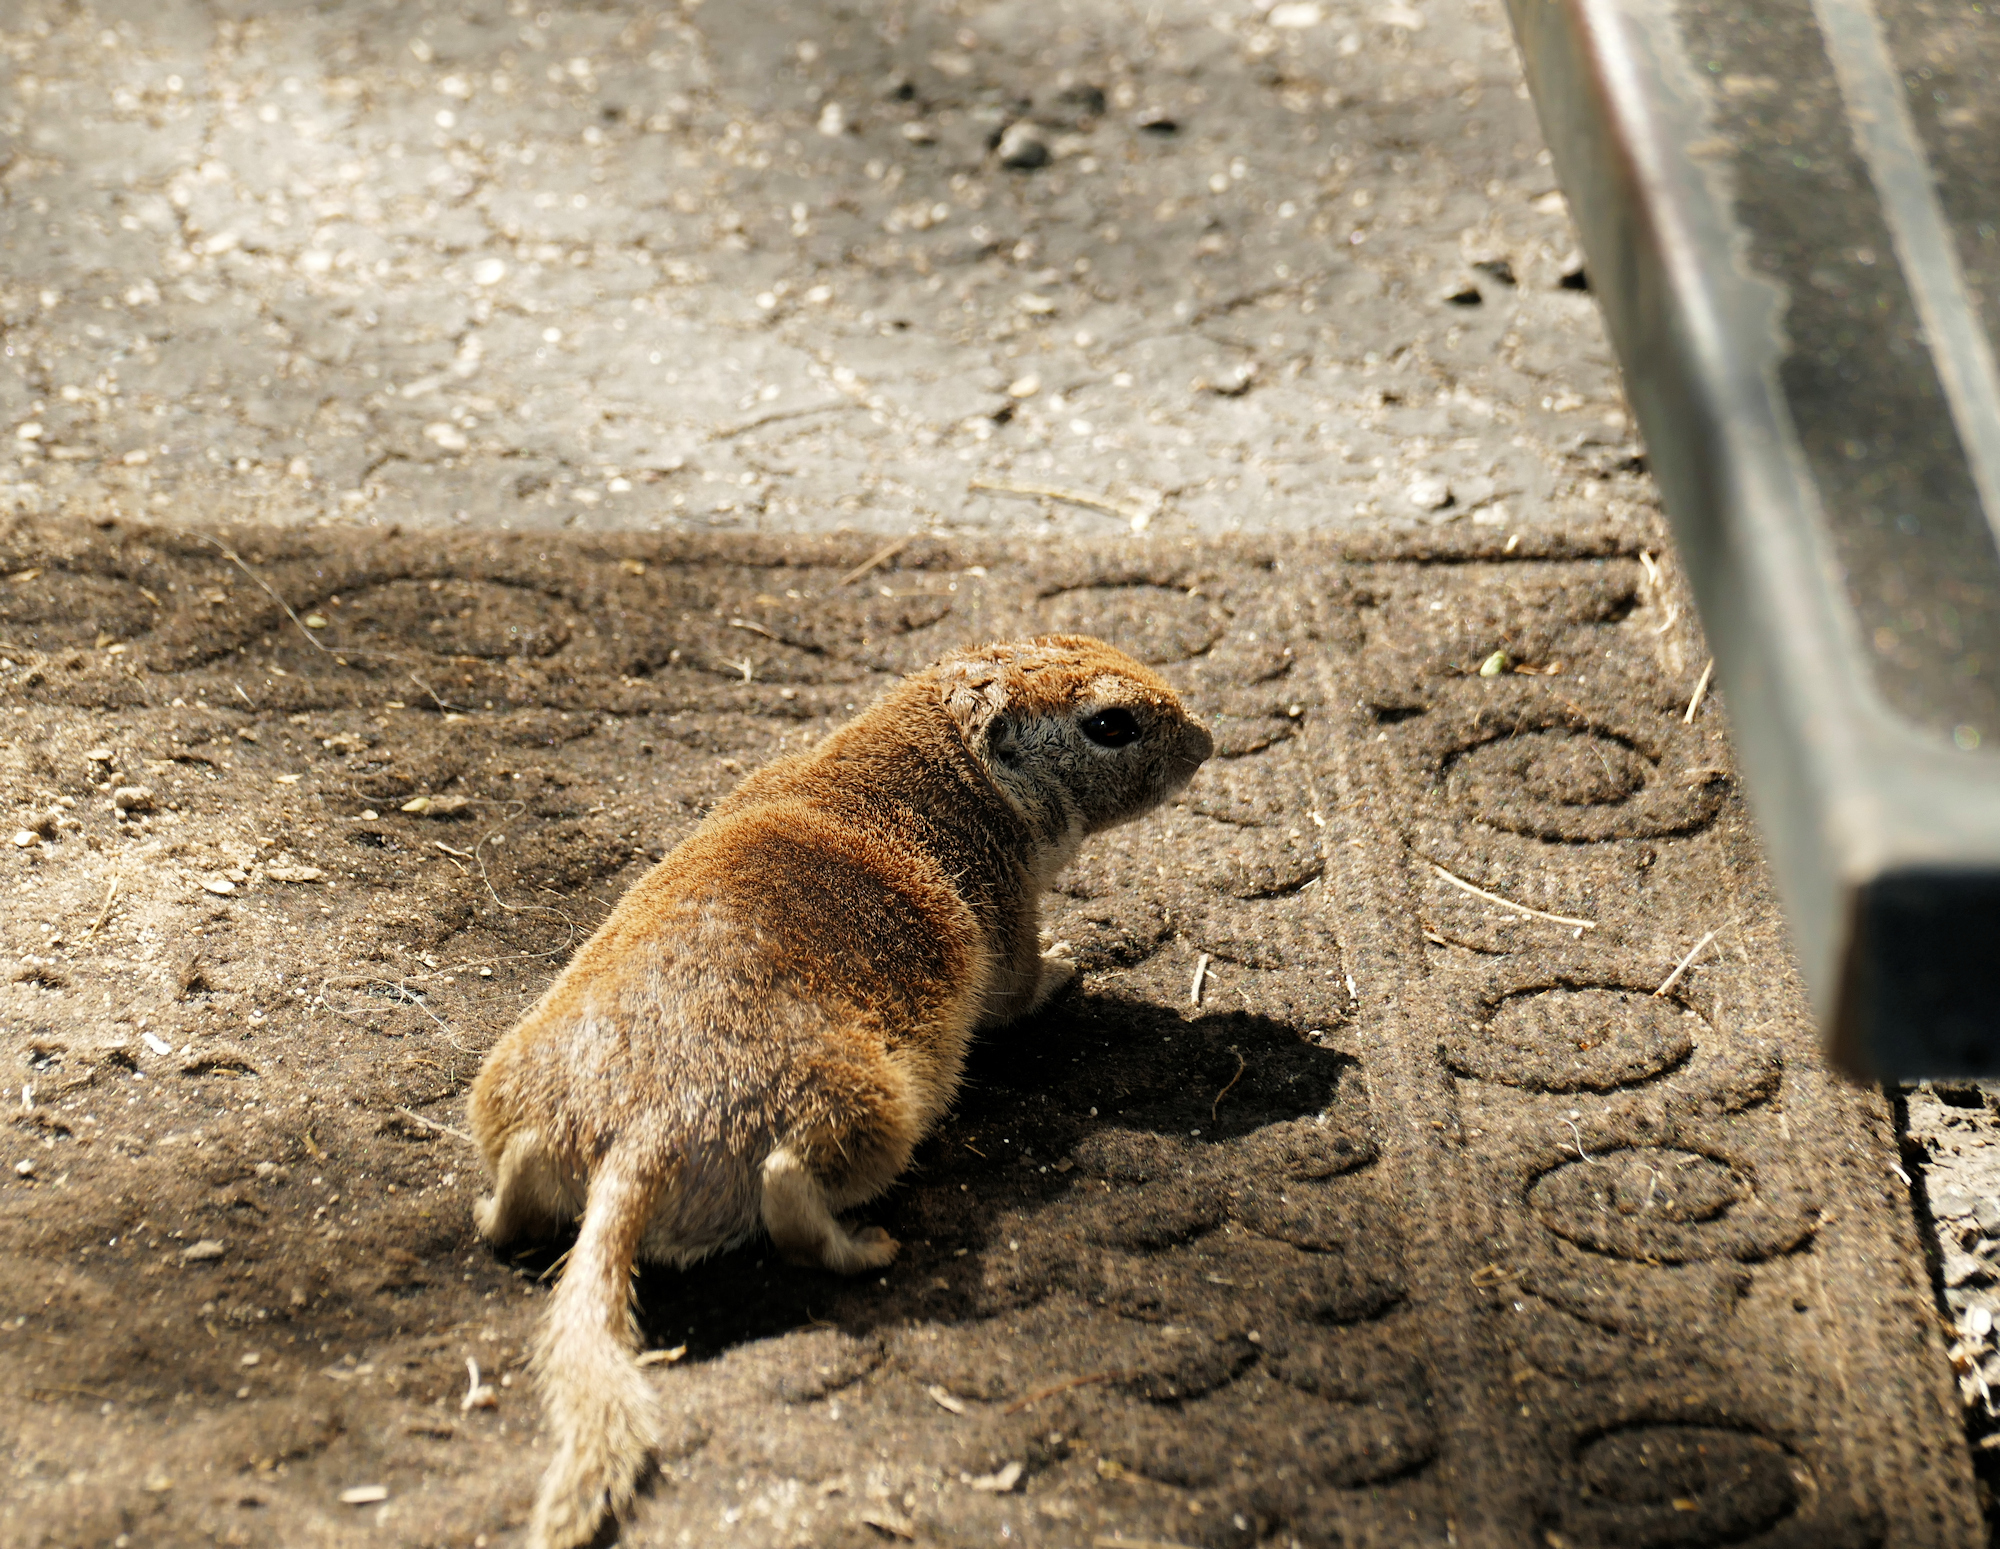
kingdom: Animalia
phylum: Chordata
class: Mammalia
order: Rodentia
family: Sciuridae
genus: Xerospermophilus
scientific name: Xerospermophilus tereticaudus
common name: Round-tailed ground squirrel
